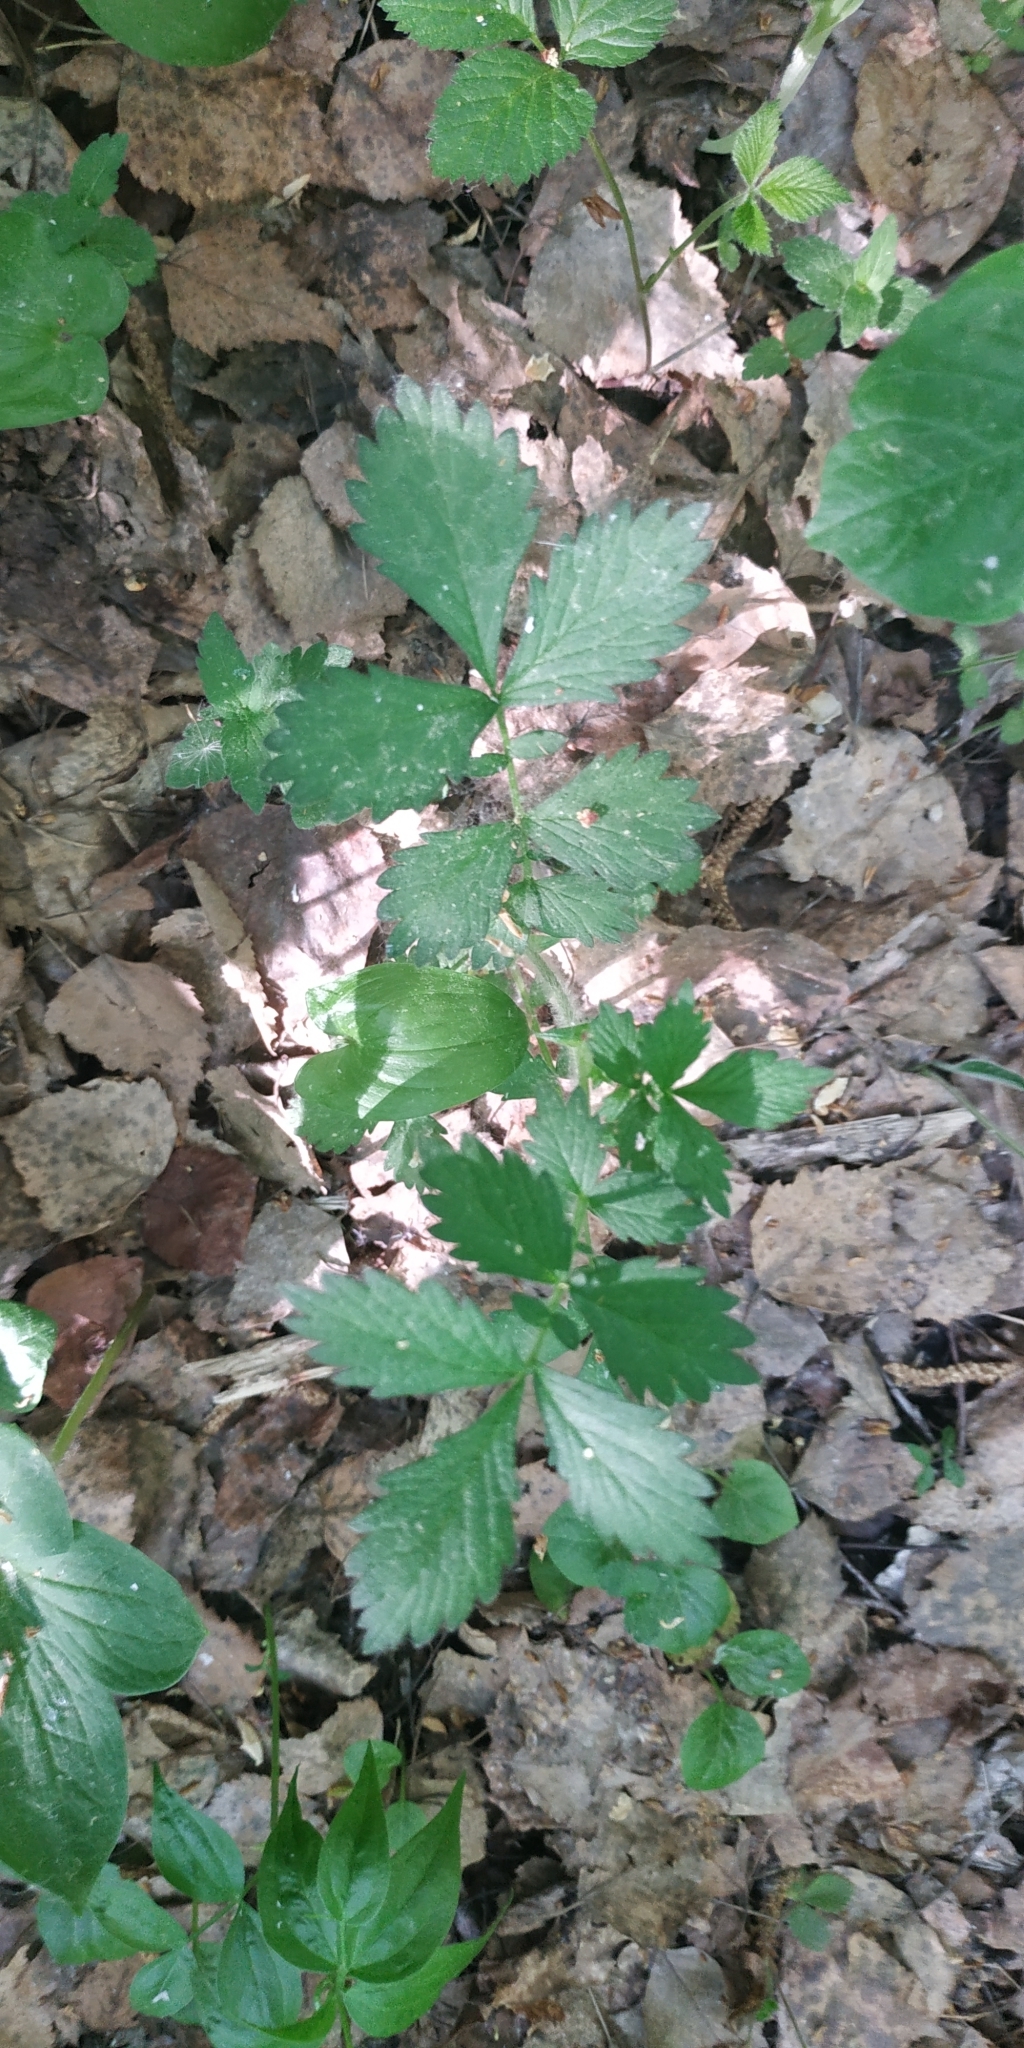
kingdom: Plantae
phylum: Tracheophyta
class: Magnoliopsida
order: Rosales
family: Rosaceae
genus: Agrimonia
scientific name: Agrimonia pilosa
